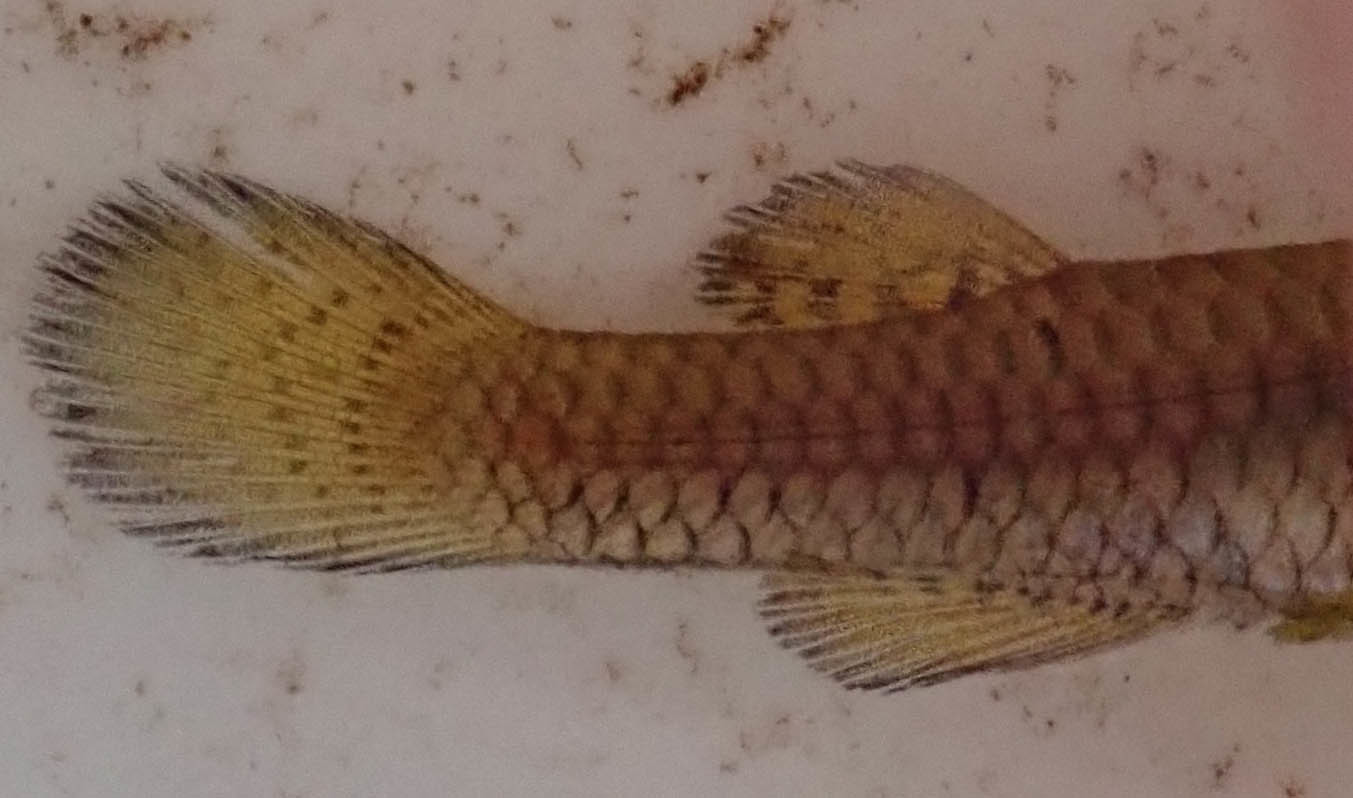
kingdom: Animalia
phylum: Chordata
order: Cyprinodontiformes
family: Poeciliidae
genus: Micropanchax
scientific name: Micropanchax hutereaui
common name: Meshscaled topminnow
